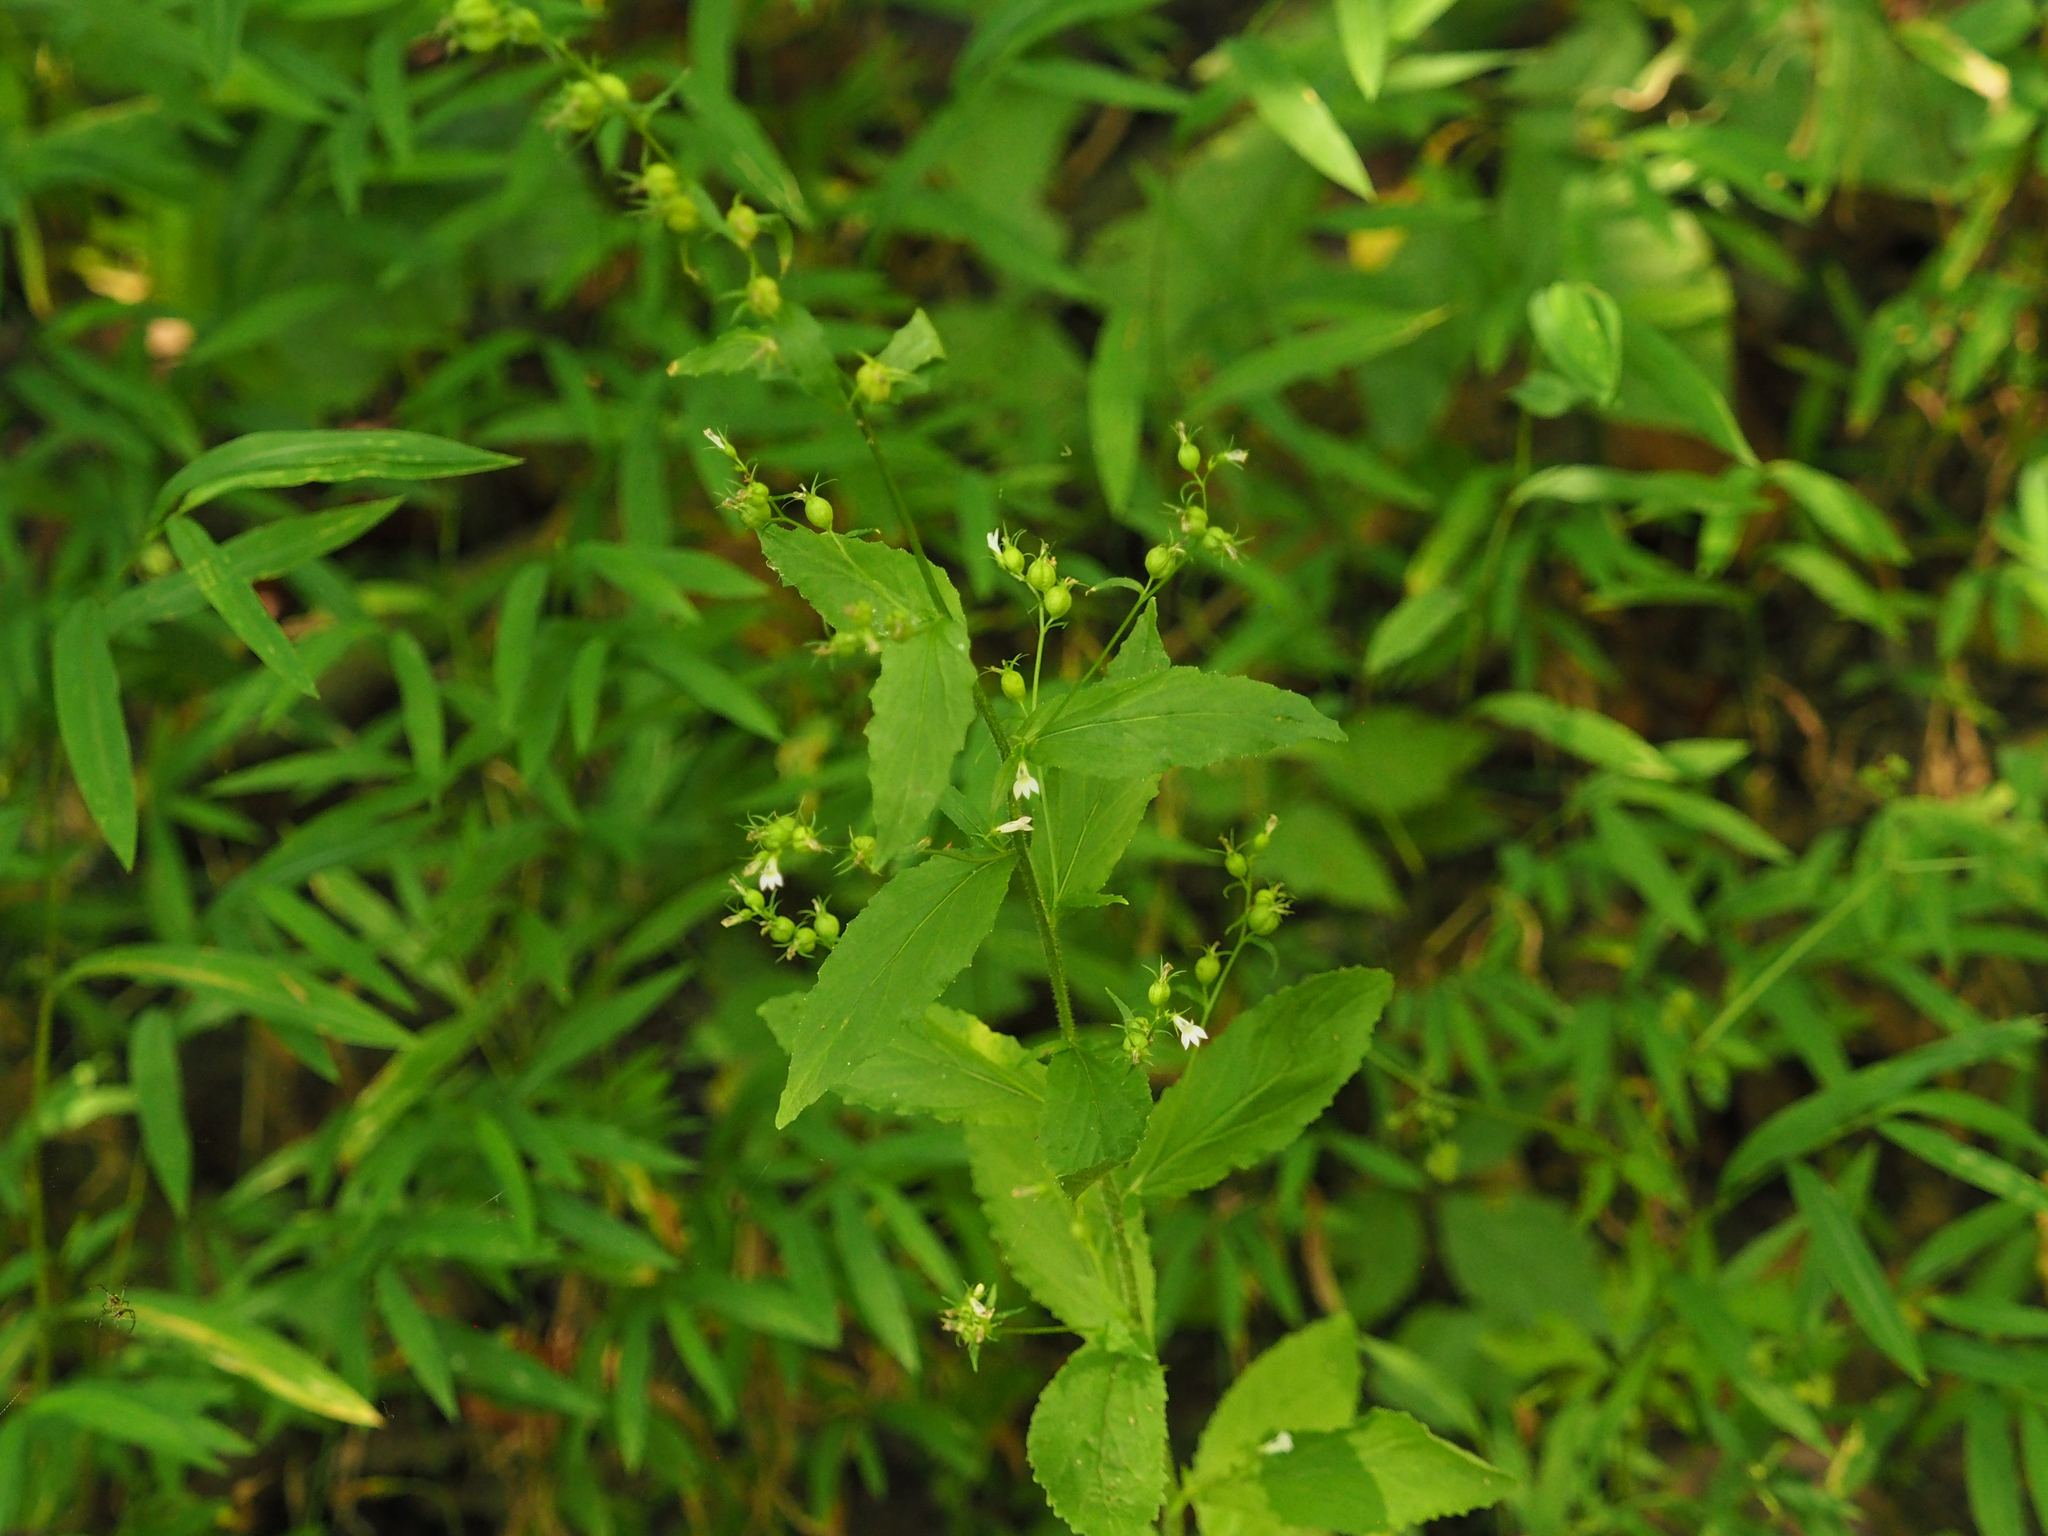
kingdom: Plantae
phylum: Tracheophyta
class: Magnoliopsida
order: Asterales
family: Campanulaceae
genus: Lobelia
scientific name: Lobelia inflata
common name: Indian tobacco
